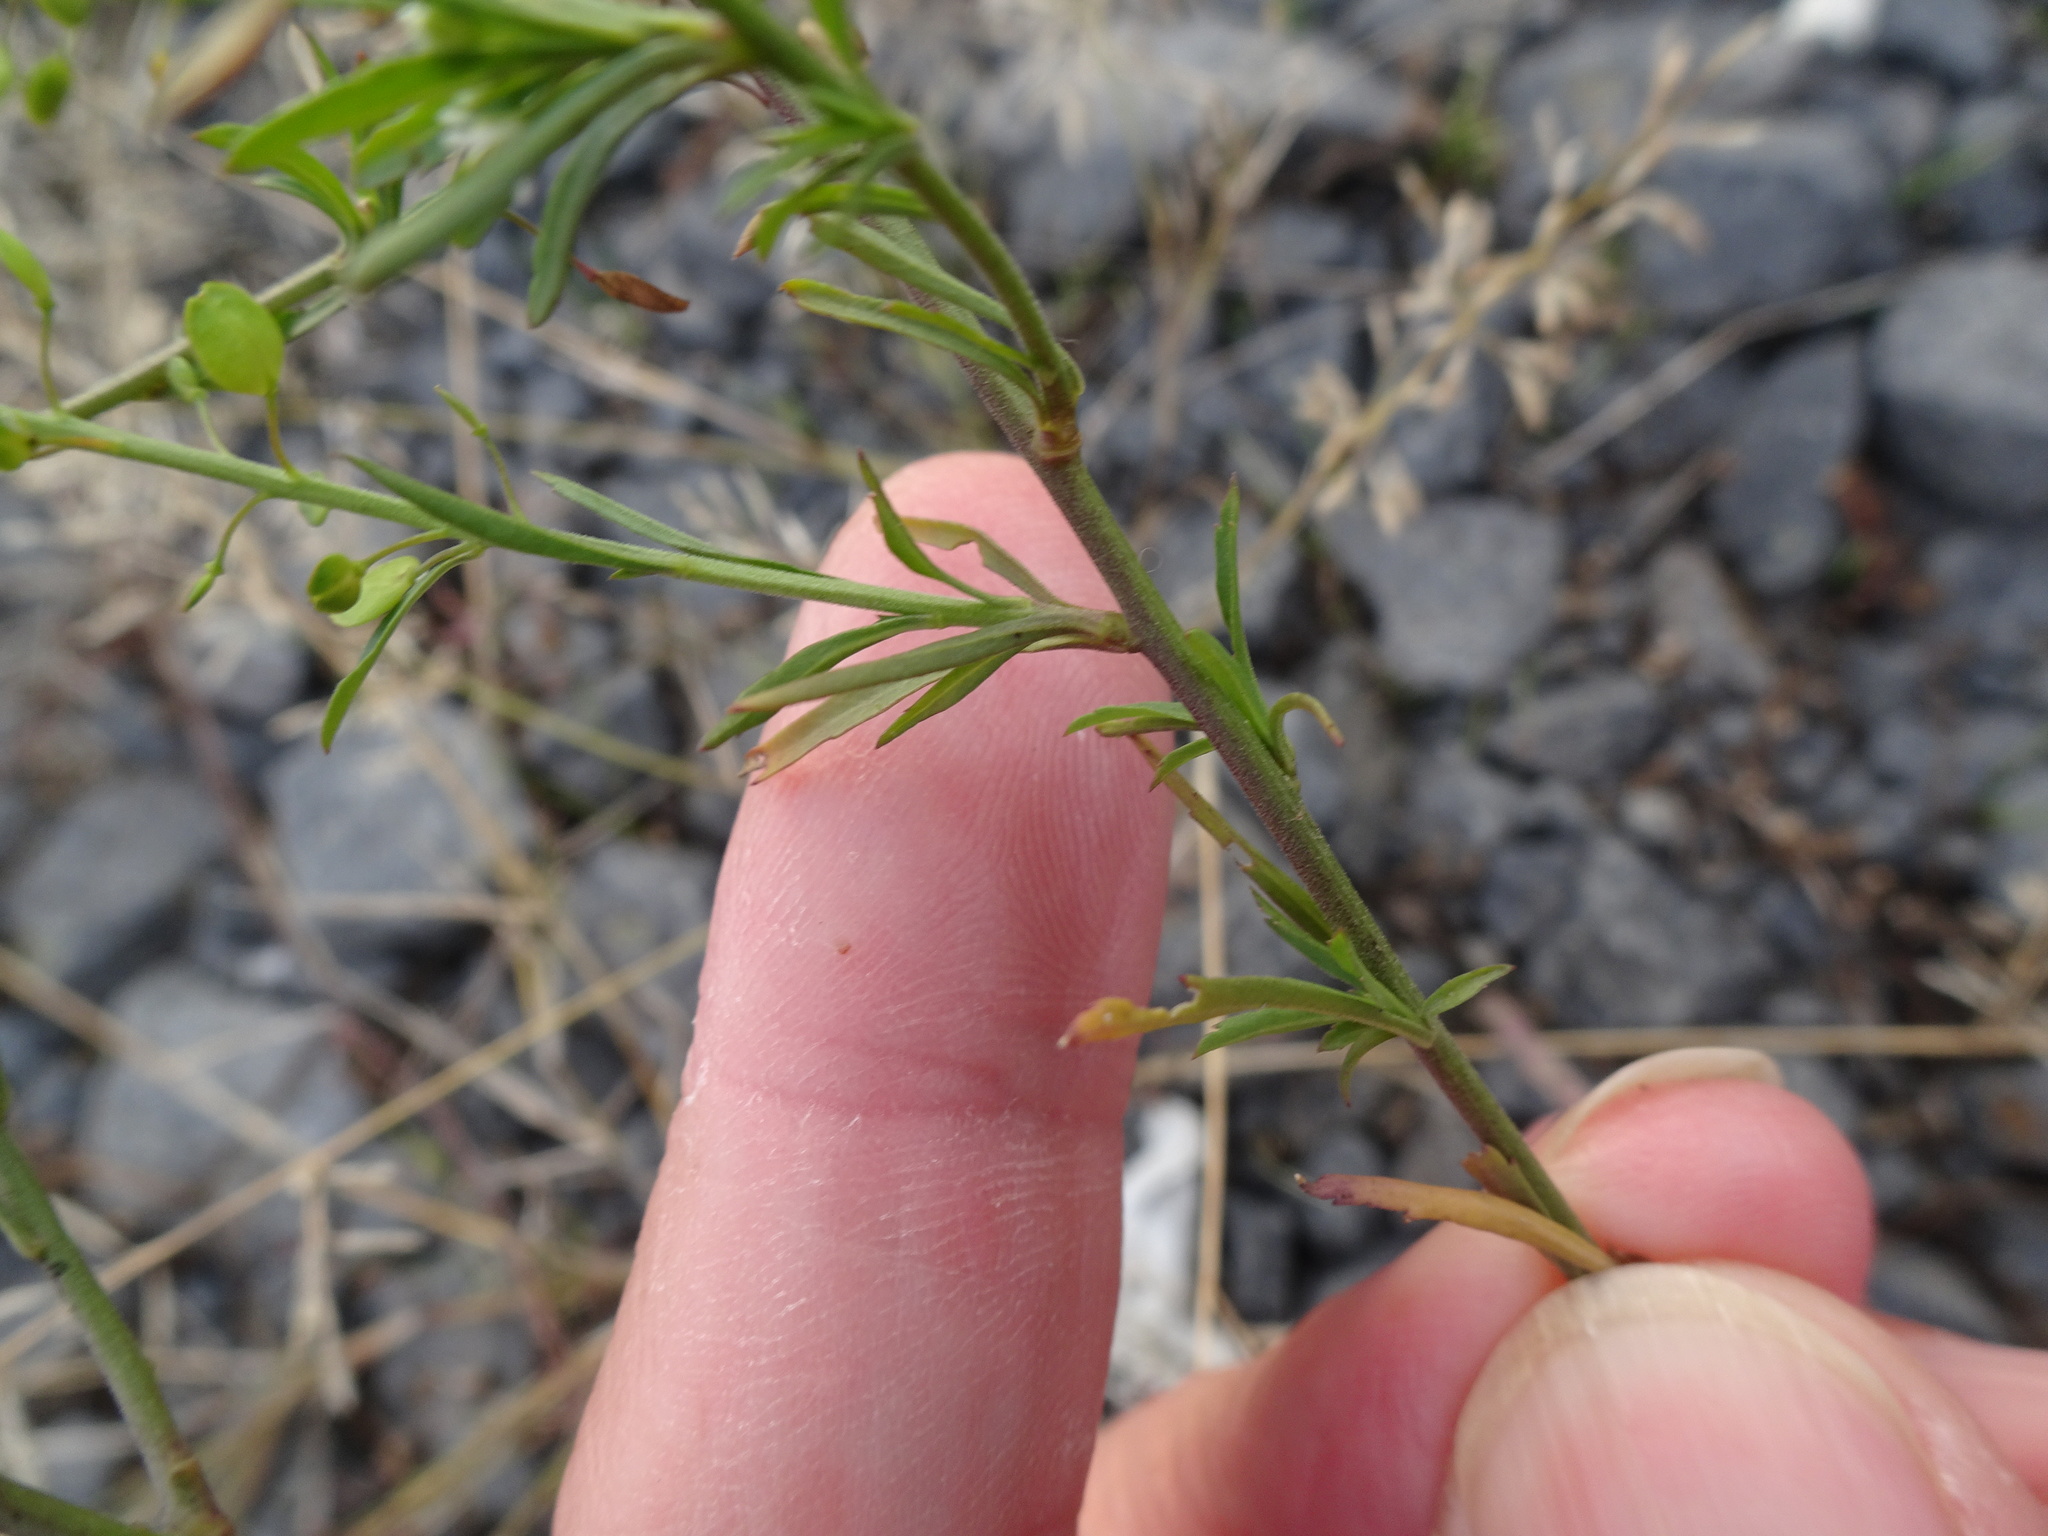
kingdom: Plantae
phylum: Tracheophyta
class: Magnoliopsida
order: Brassicales
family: Brassicaceae
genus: Lepidium
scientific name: Lepidium ruderale
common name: Narrow-leaved pepperwort
